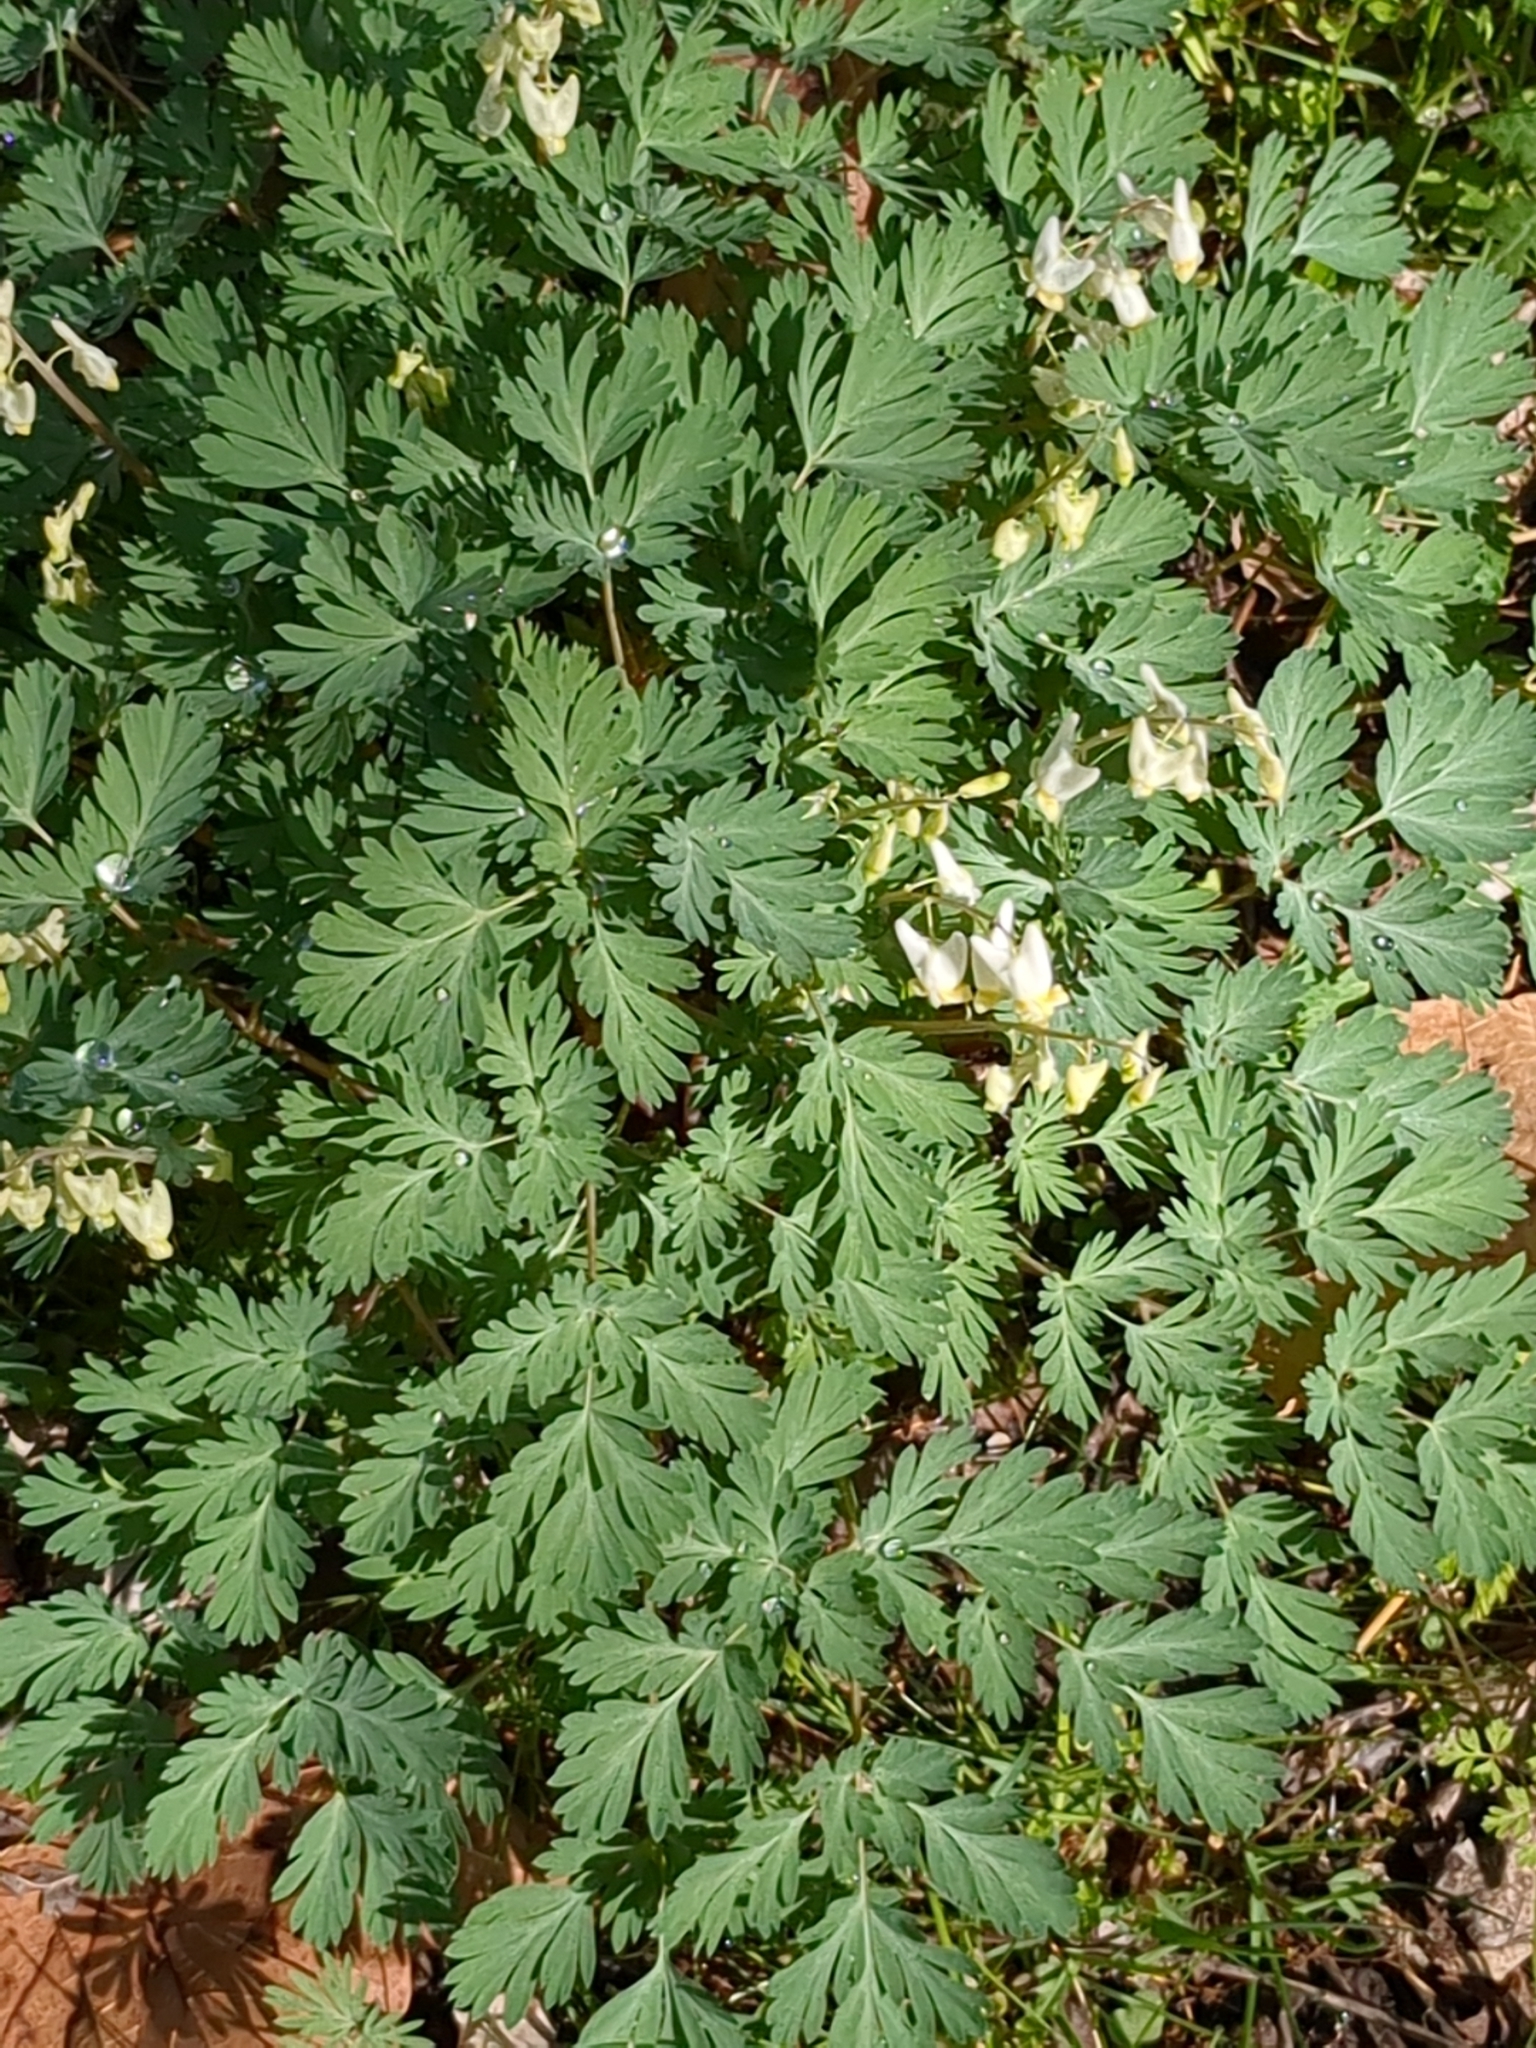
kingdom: Plantae
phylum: Tracheophyta
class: Magnoliopsida
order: Ranunculales
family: Papaveraceae
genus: Dicentra
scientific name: Dicentra cucullaria
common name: Dutchman's breeches
